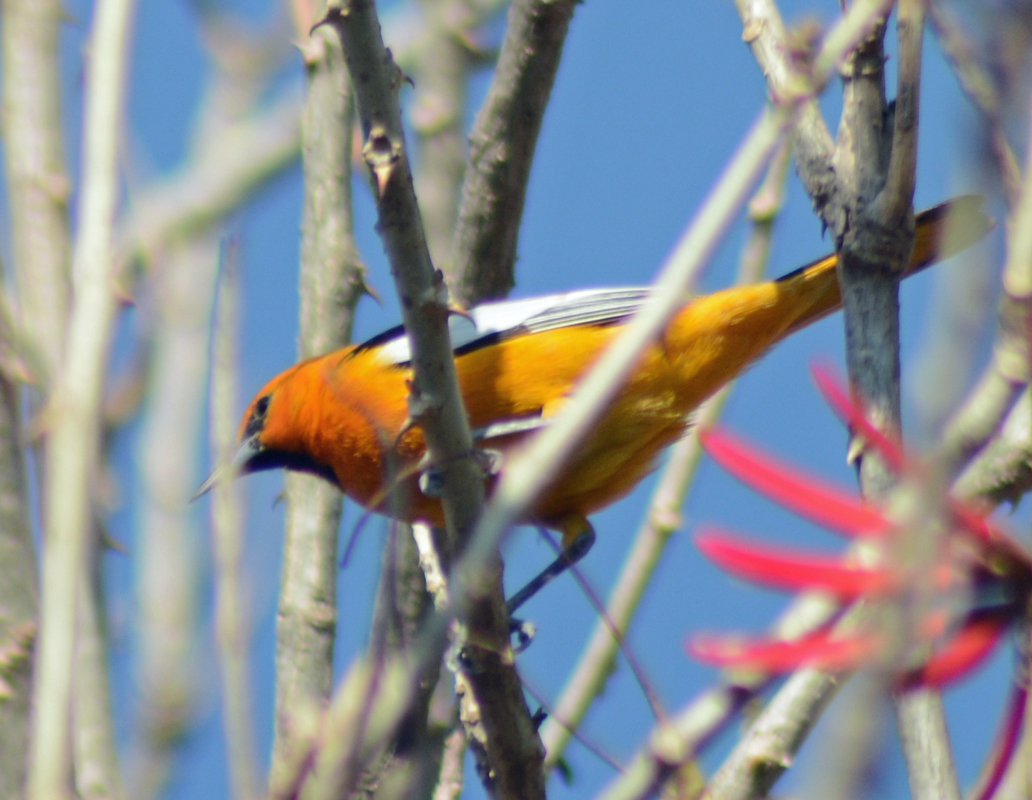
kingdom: Animalia
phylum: Chordata
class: Aves
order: Passeriformes
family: Icteridae
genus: Icterus
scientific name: Icterus bullockii
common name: Bullock's oriole
